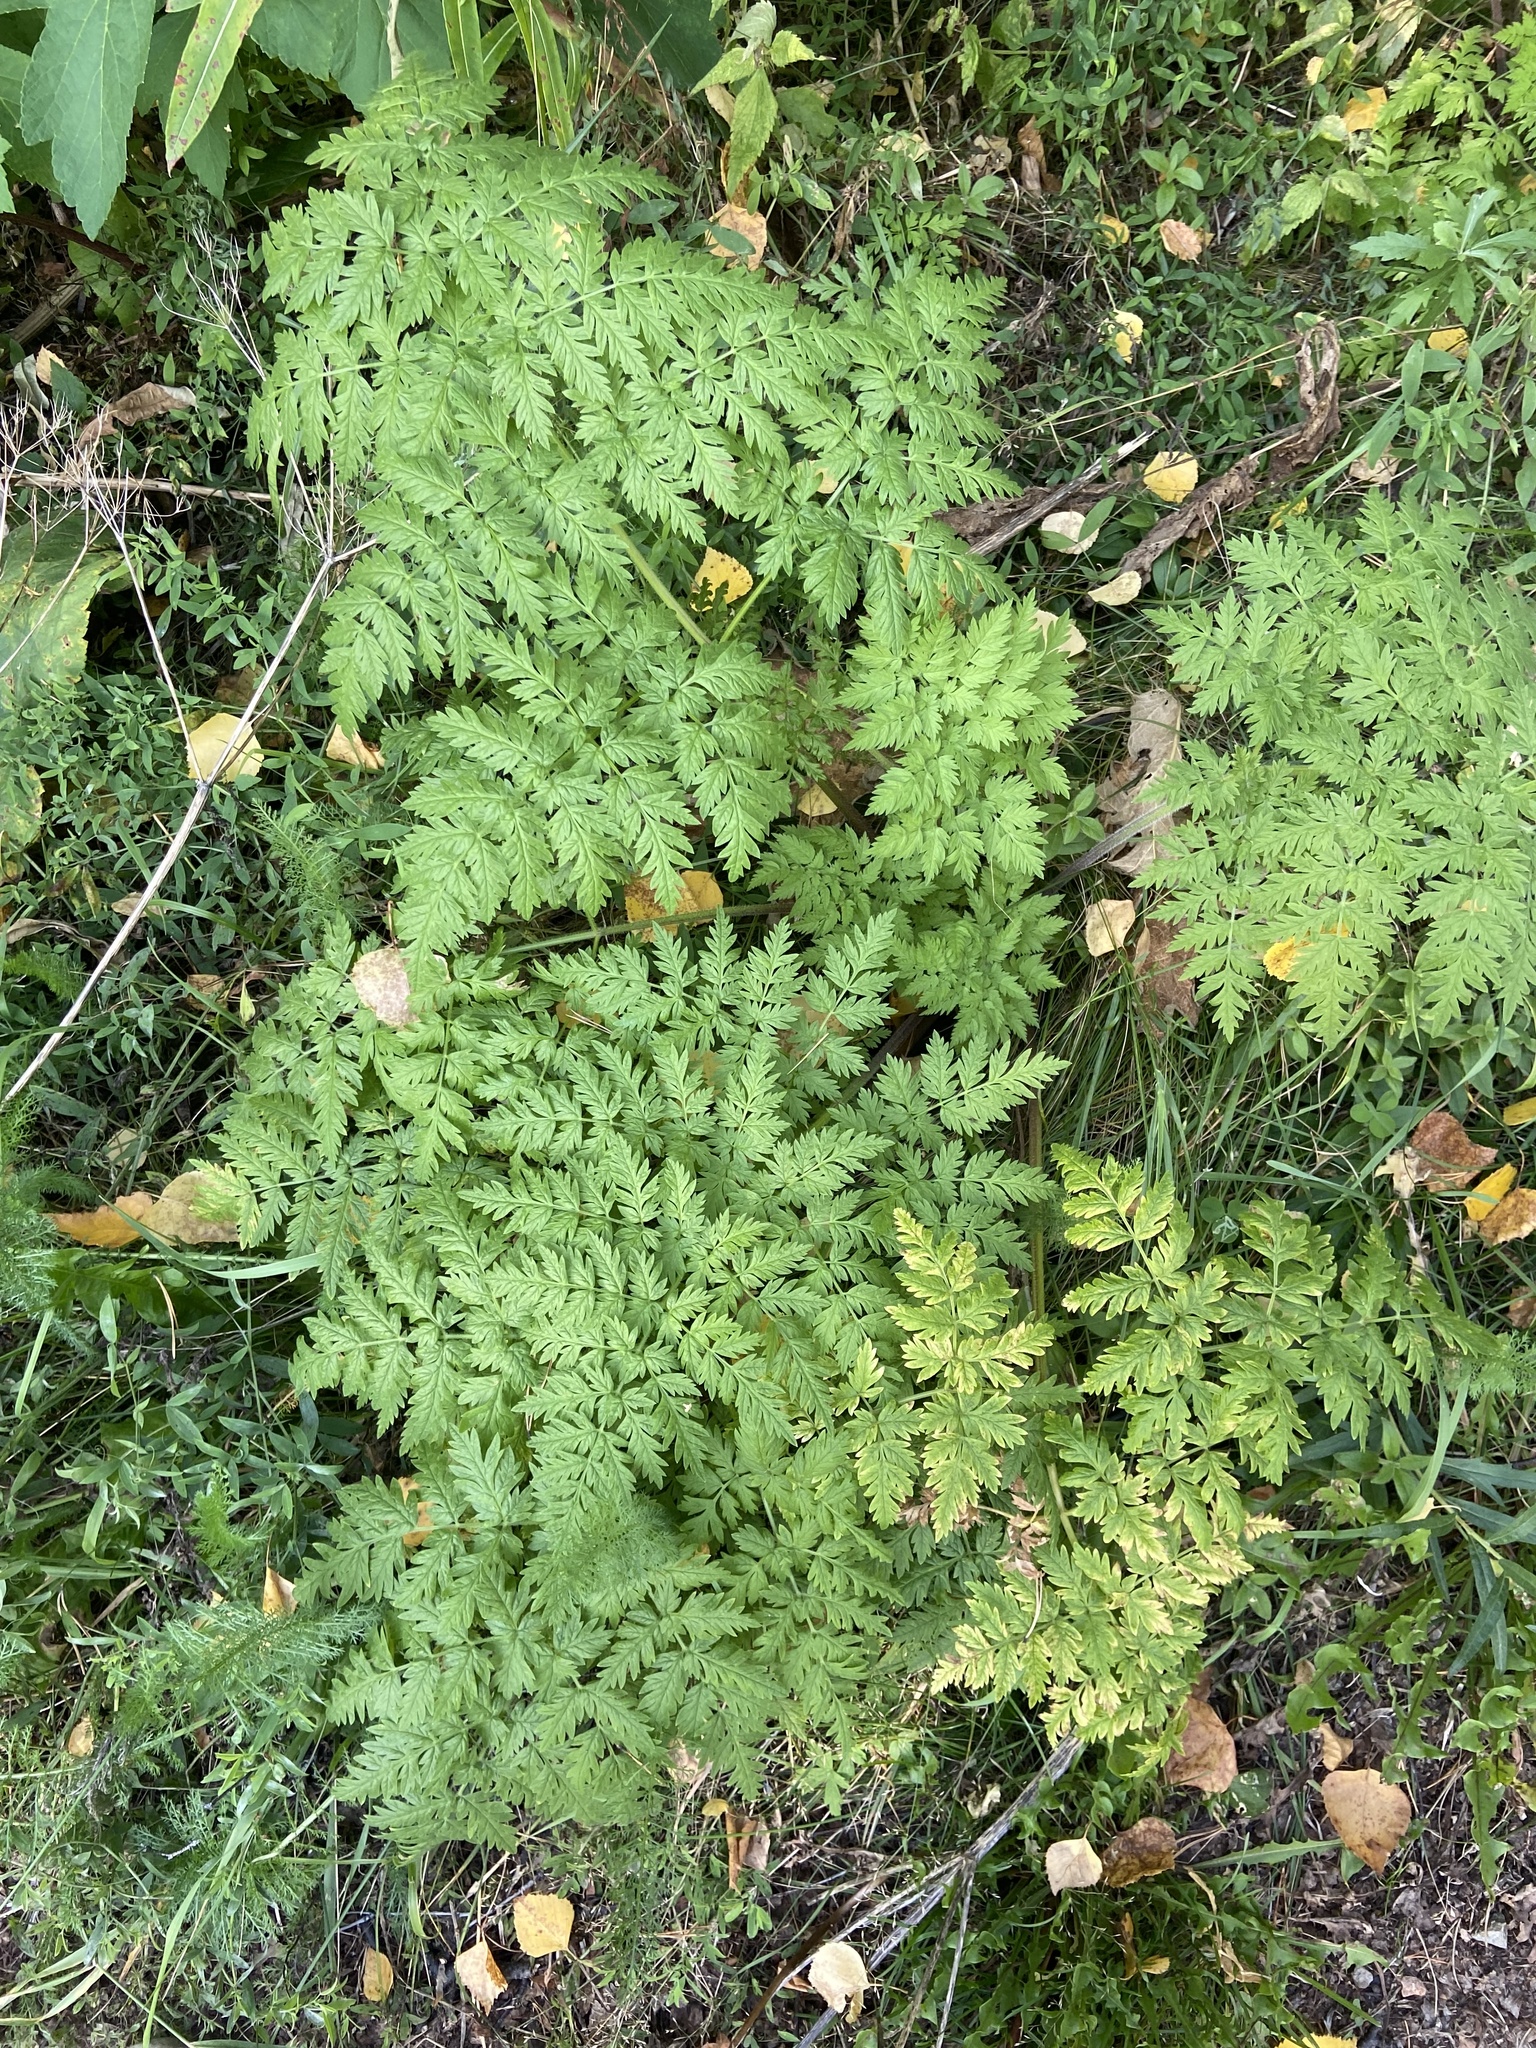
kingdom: Plantae
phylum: Tracheophyta
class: Magnoliopsida
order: Apiales
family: Apiaceae
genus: Anthriscus
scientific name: Anthriscus sylvestris
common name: Cow parsley
